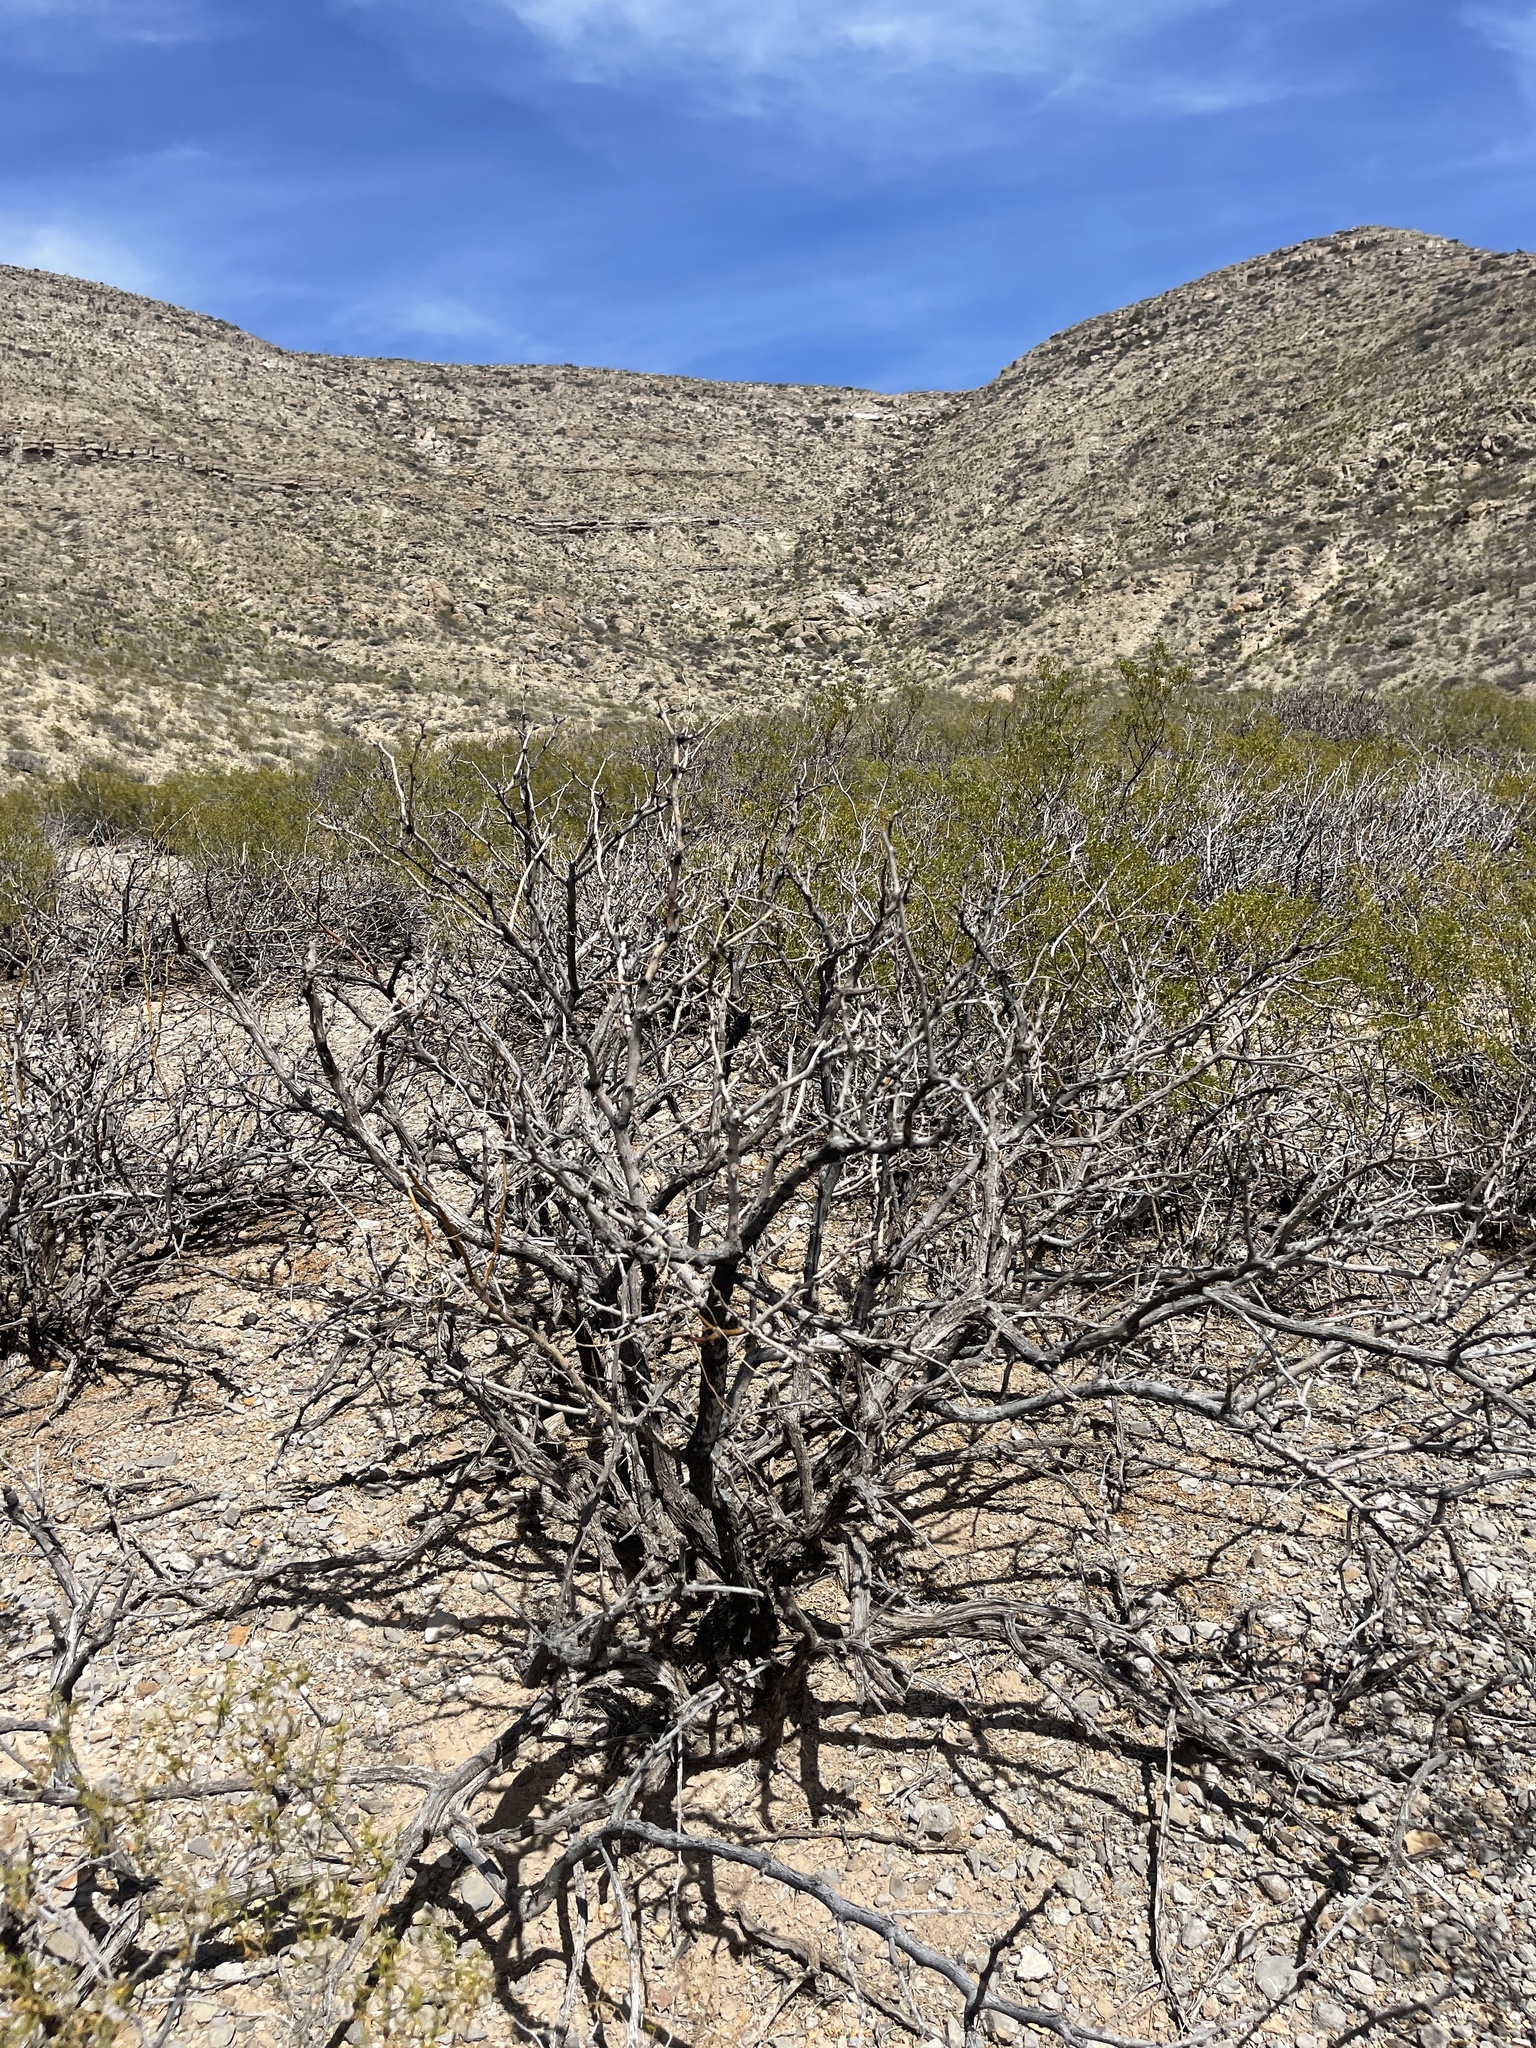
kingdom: Plantae
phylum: Tracheophyta
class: Magnoliopsida
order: Fabales
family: Fabaceae
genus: Prosopis
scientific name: Prosopis glandulosa
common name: Honey mesquite
